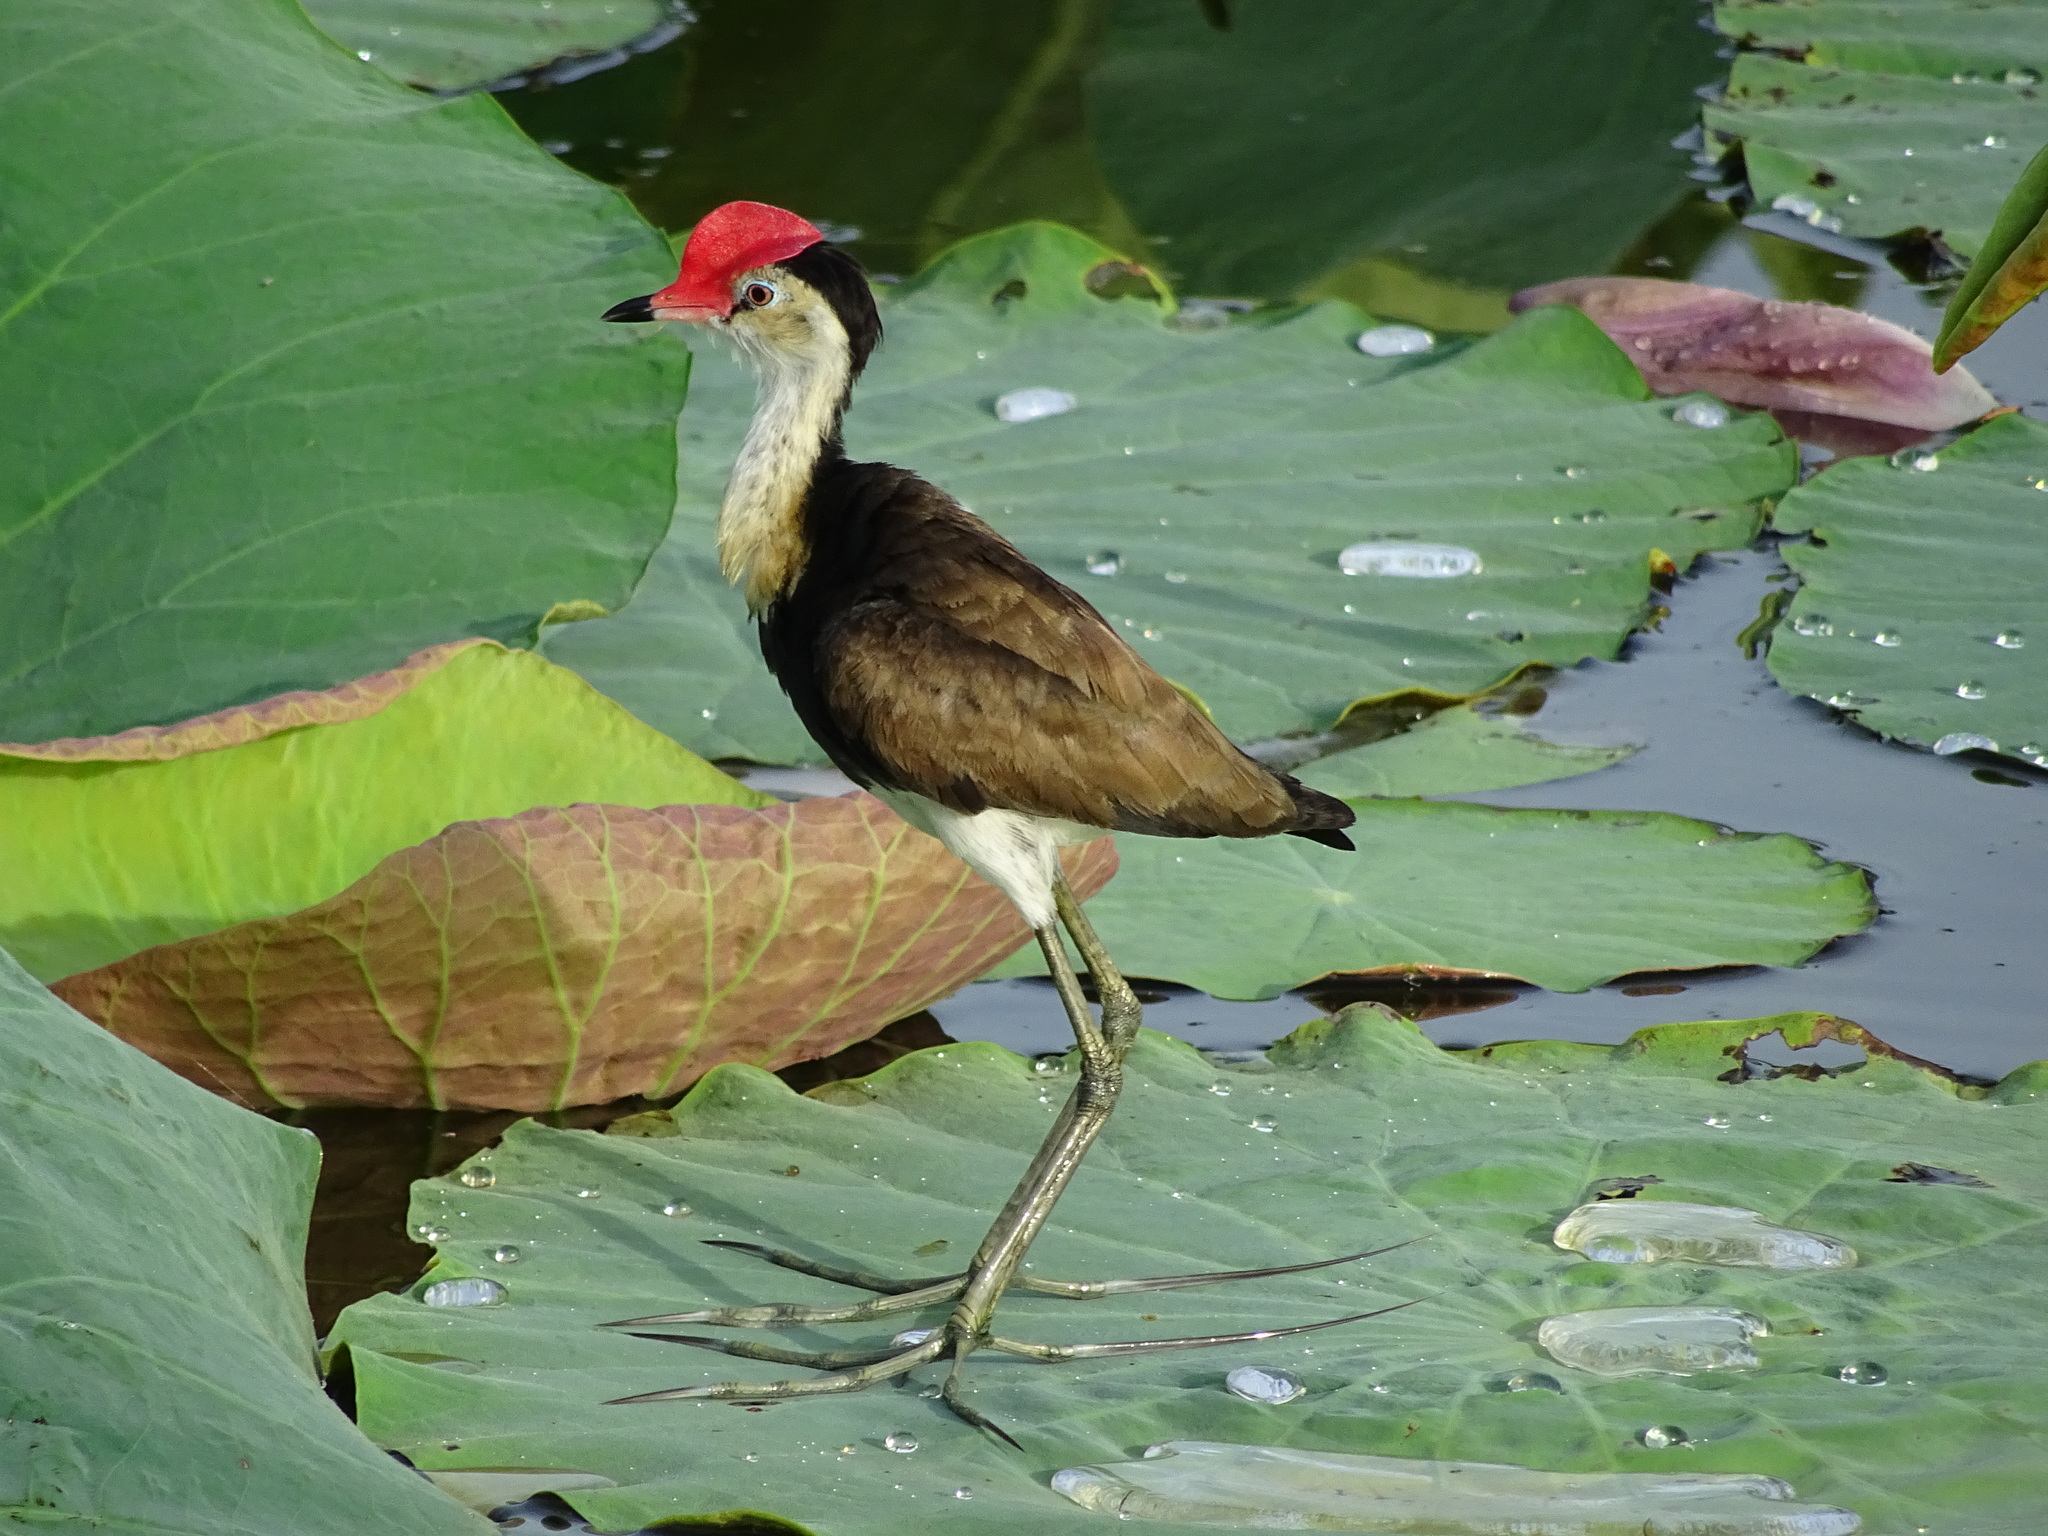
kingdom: Animalia
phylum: Chordata
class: Aves
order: Charadriiformes
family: Jacanidae
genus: Irediparra
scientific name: Irediparra gallinacea
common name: Comb-crested jacana
